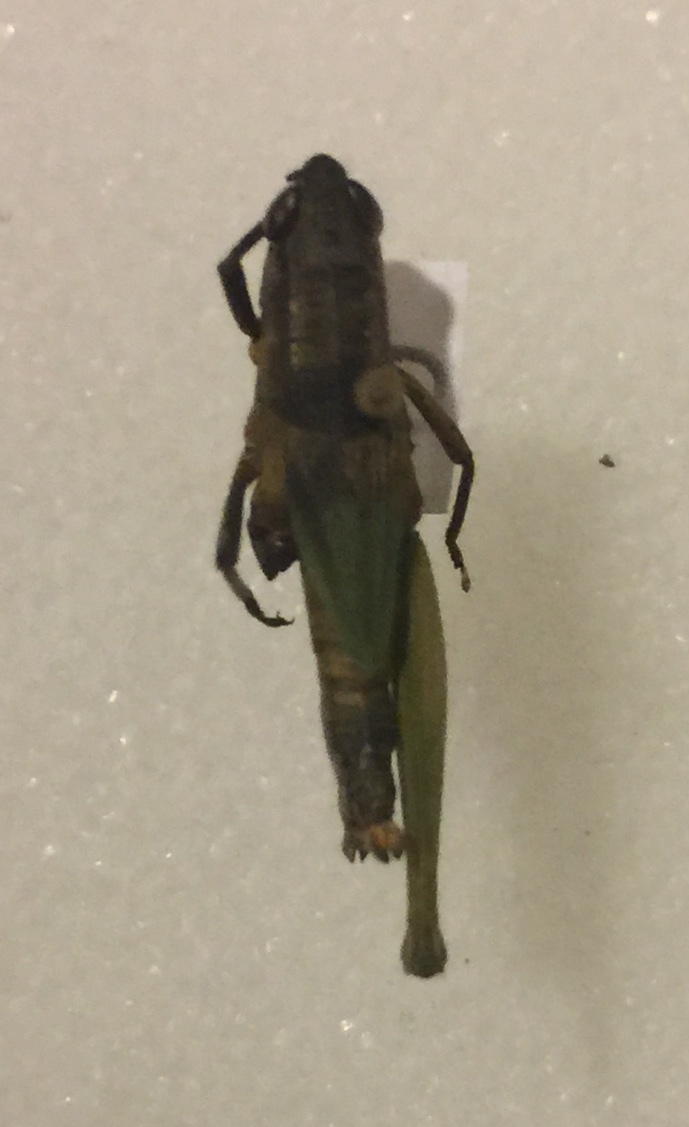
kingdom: Animalia
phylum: Arthropoda
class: Insecta
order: Orthoptera
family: Acrididae
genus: Dichromorpha
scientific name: Dichromorpha viridis
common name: Short-winged green grasshopper
